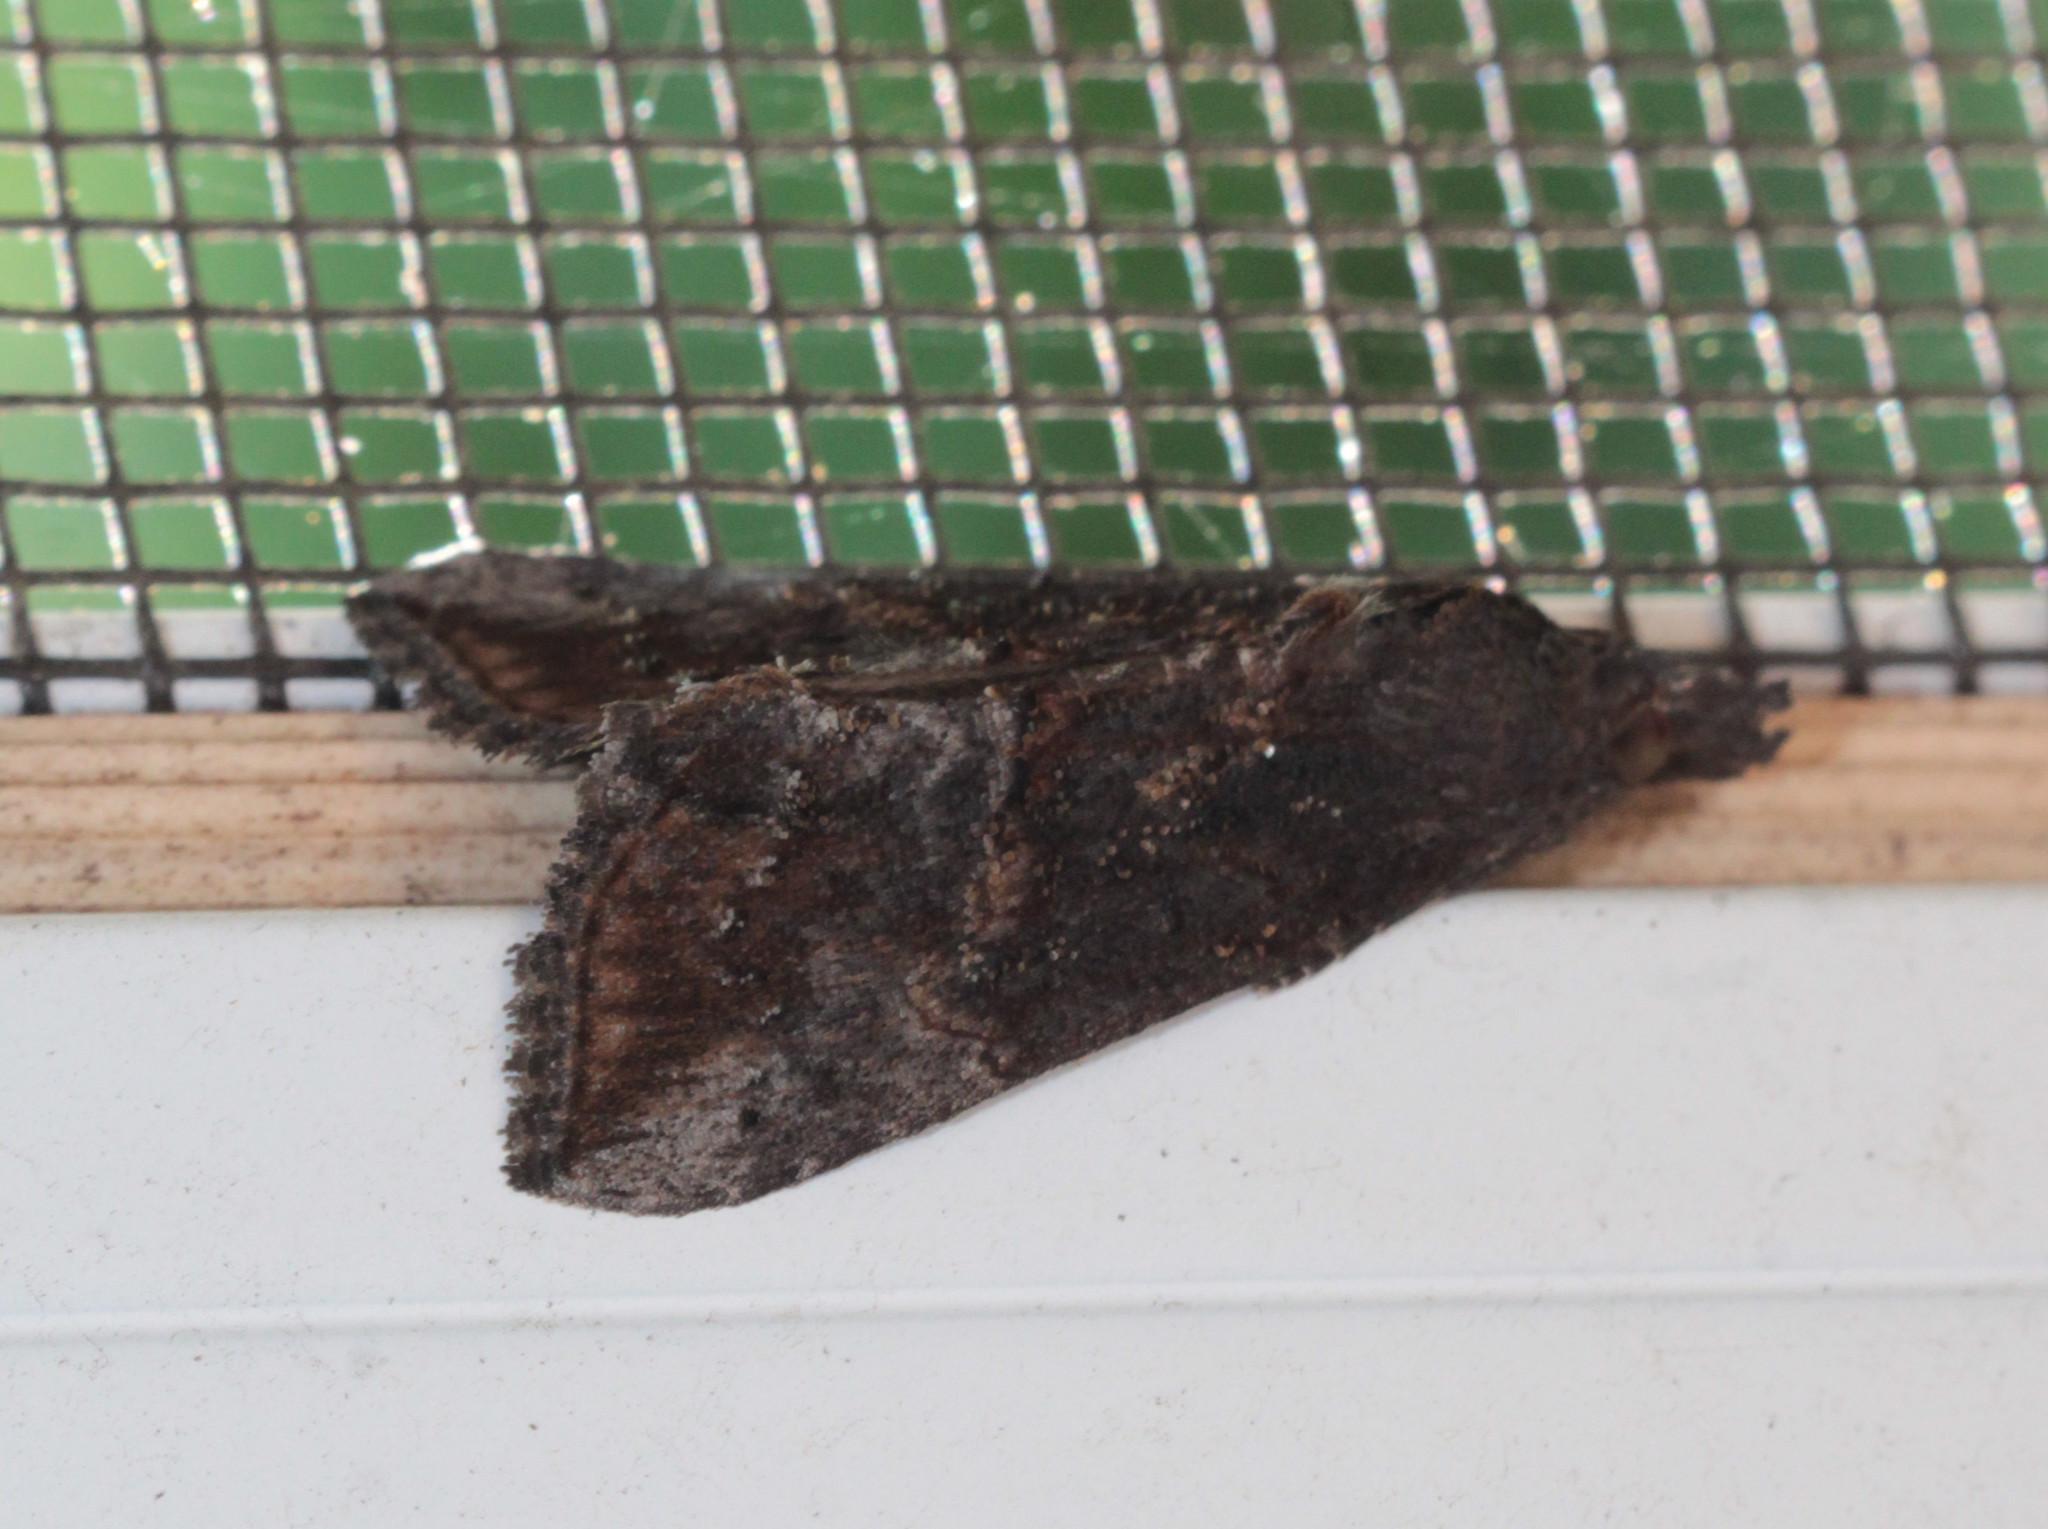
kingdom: Animalia
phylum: Arthropoda
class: Insecta
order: Lepidoptera
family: Erebidae
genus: Hypena
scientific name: Hypena scabra
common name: Green cloverworm
